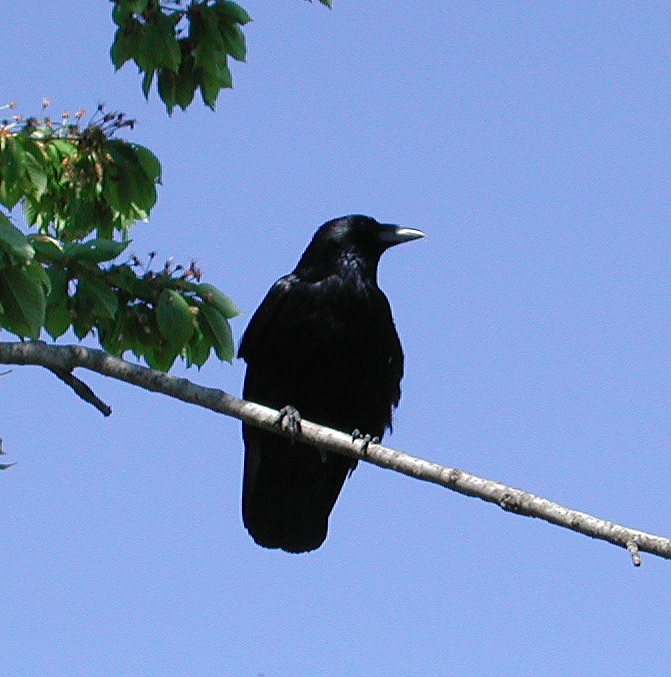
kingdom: Animalia
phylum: Chordata
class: Aves
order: Passeriformes
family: Corvidae
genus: Corvus
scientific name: Corvus corone
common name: Carrion crow
